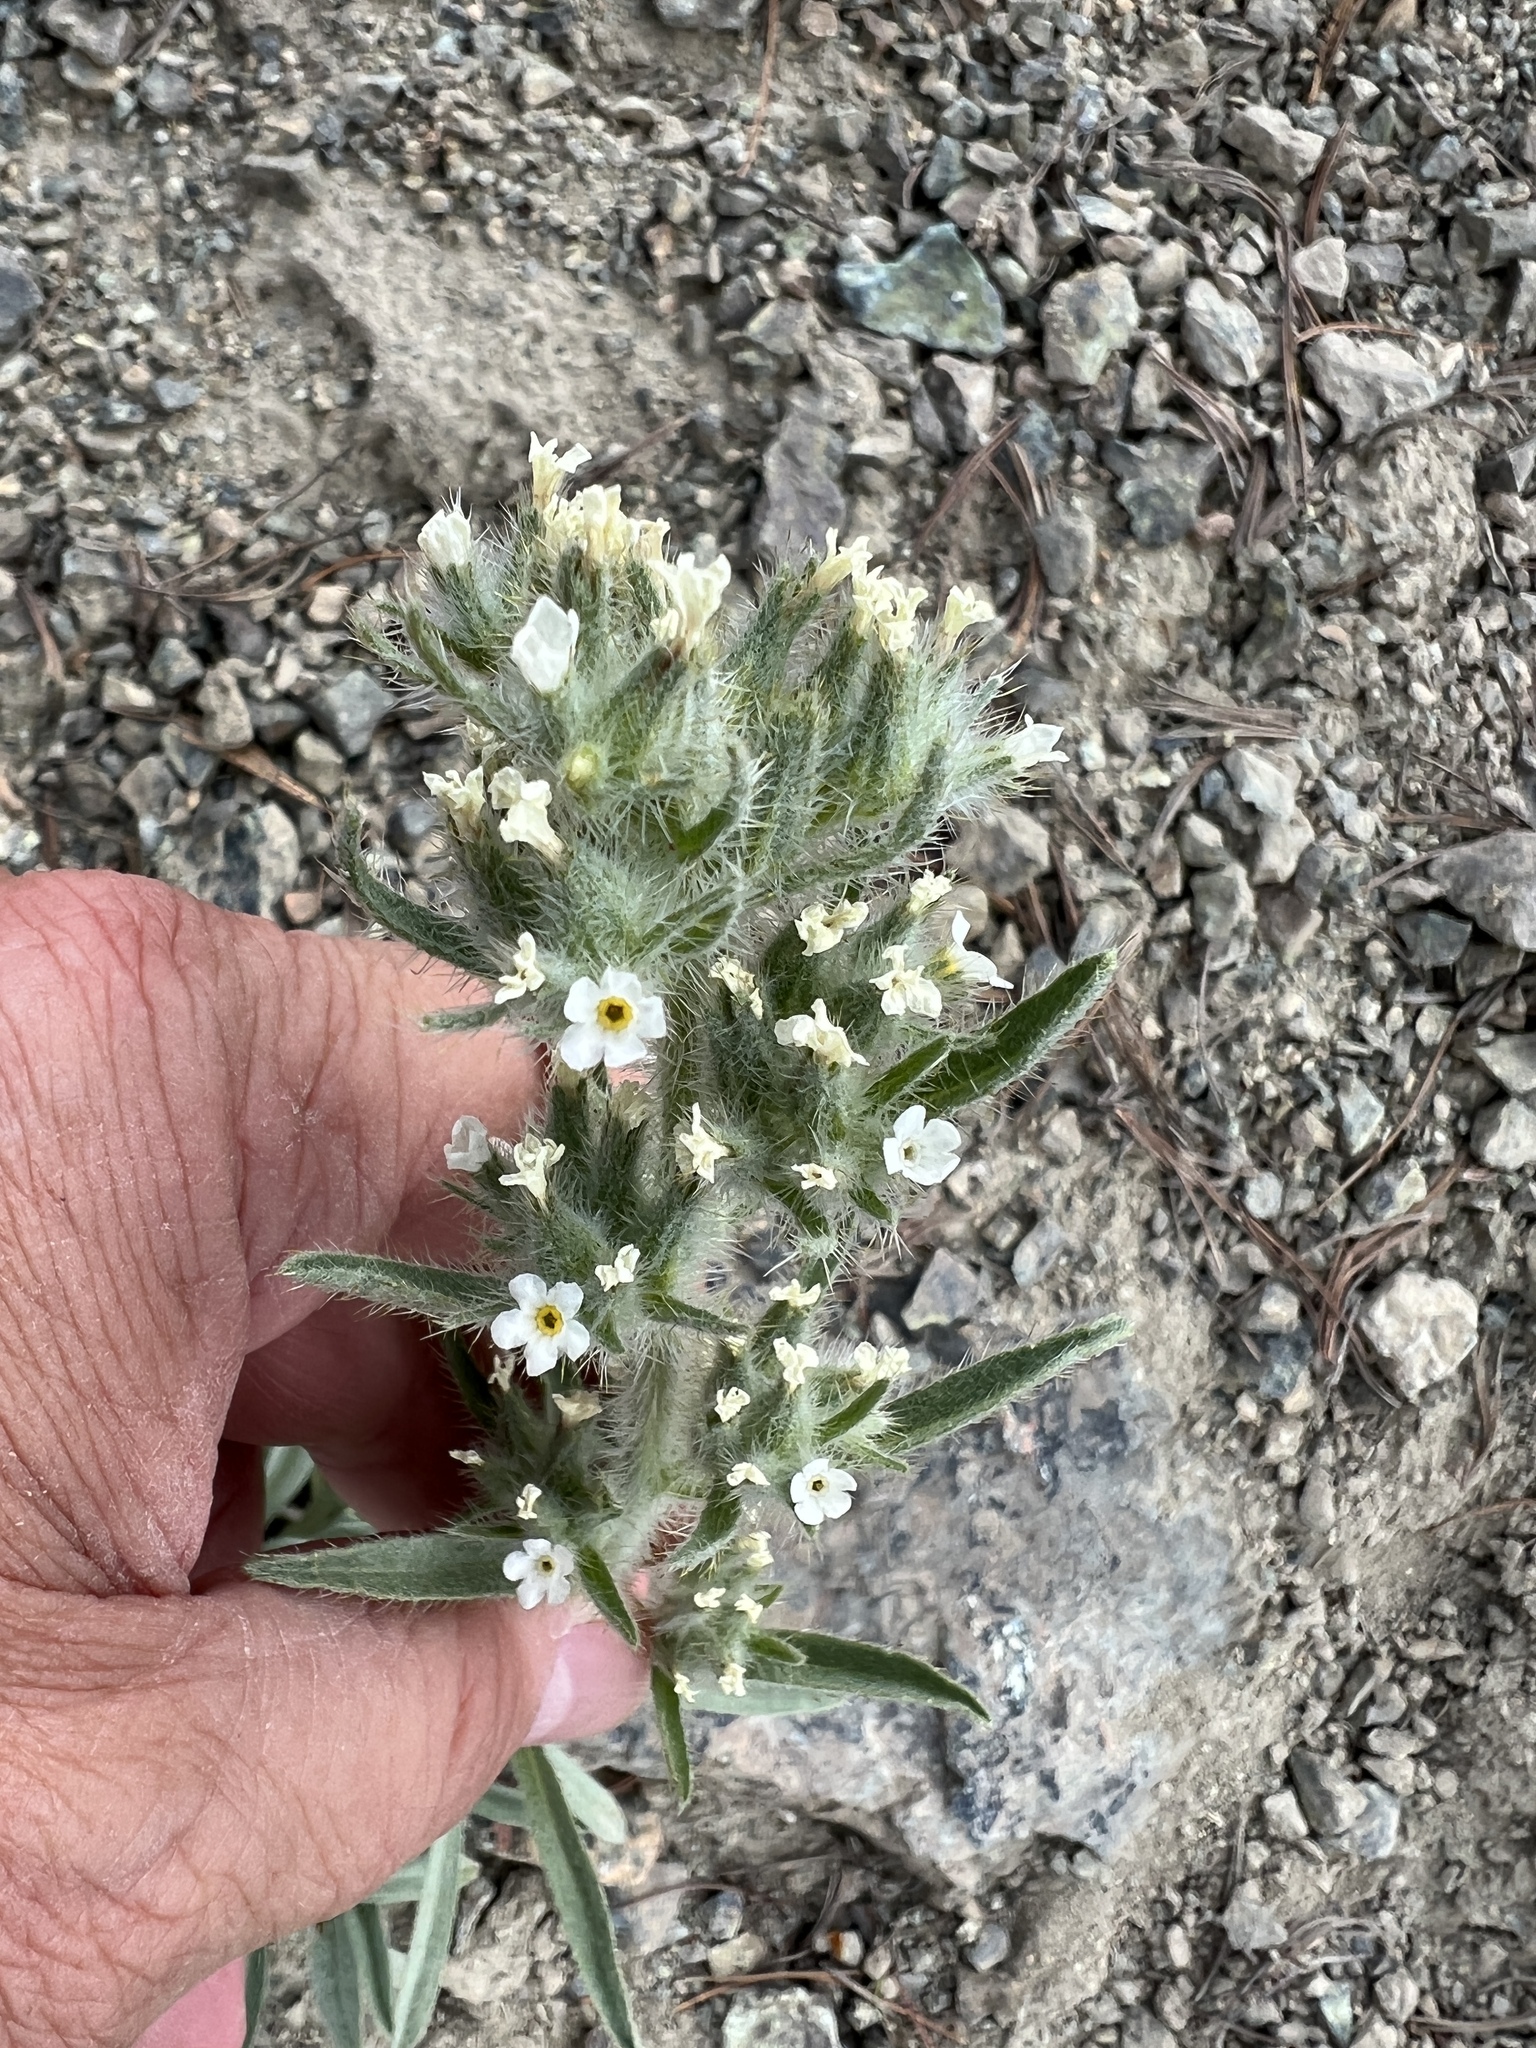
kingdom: Plantae
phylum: Tracheophyta
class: Magnoliopsida
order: Boraginales
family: Boraginaceae
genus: Oreocarya
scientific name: Oreocarya thompsonii
